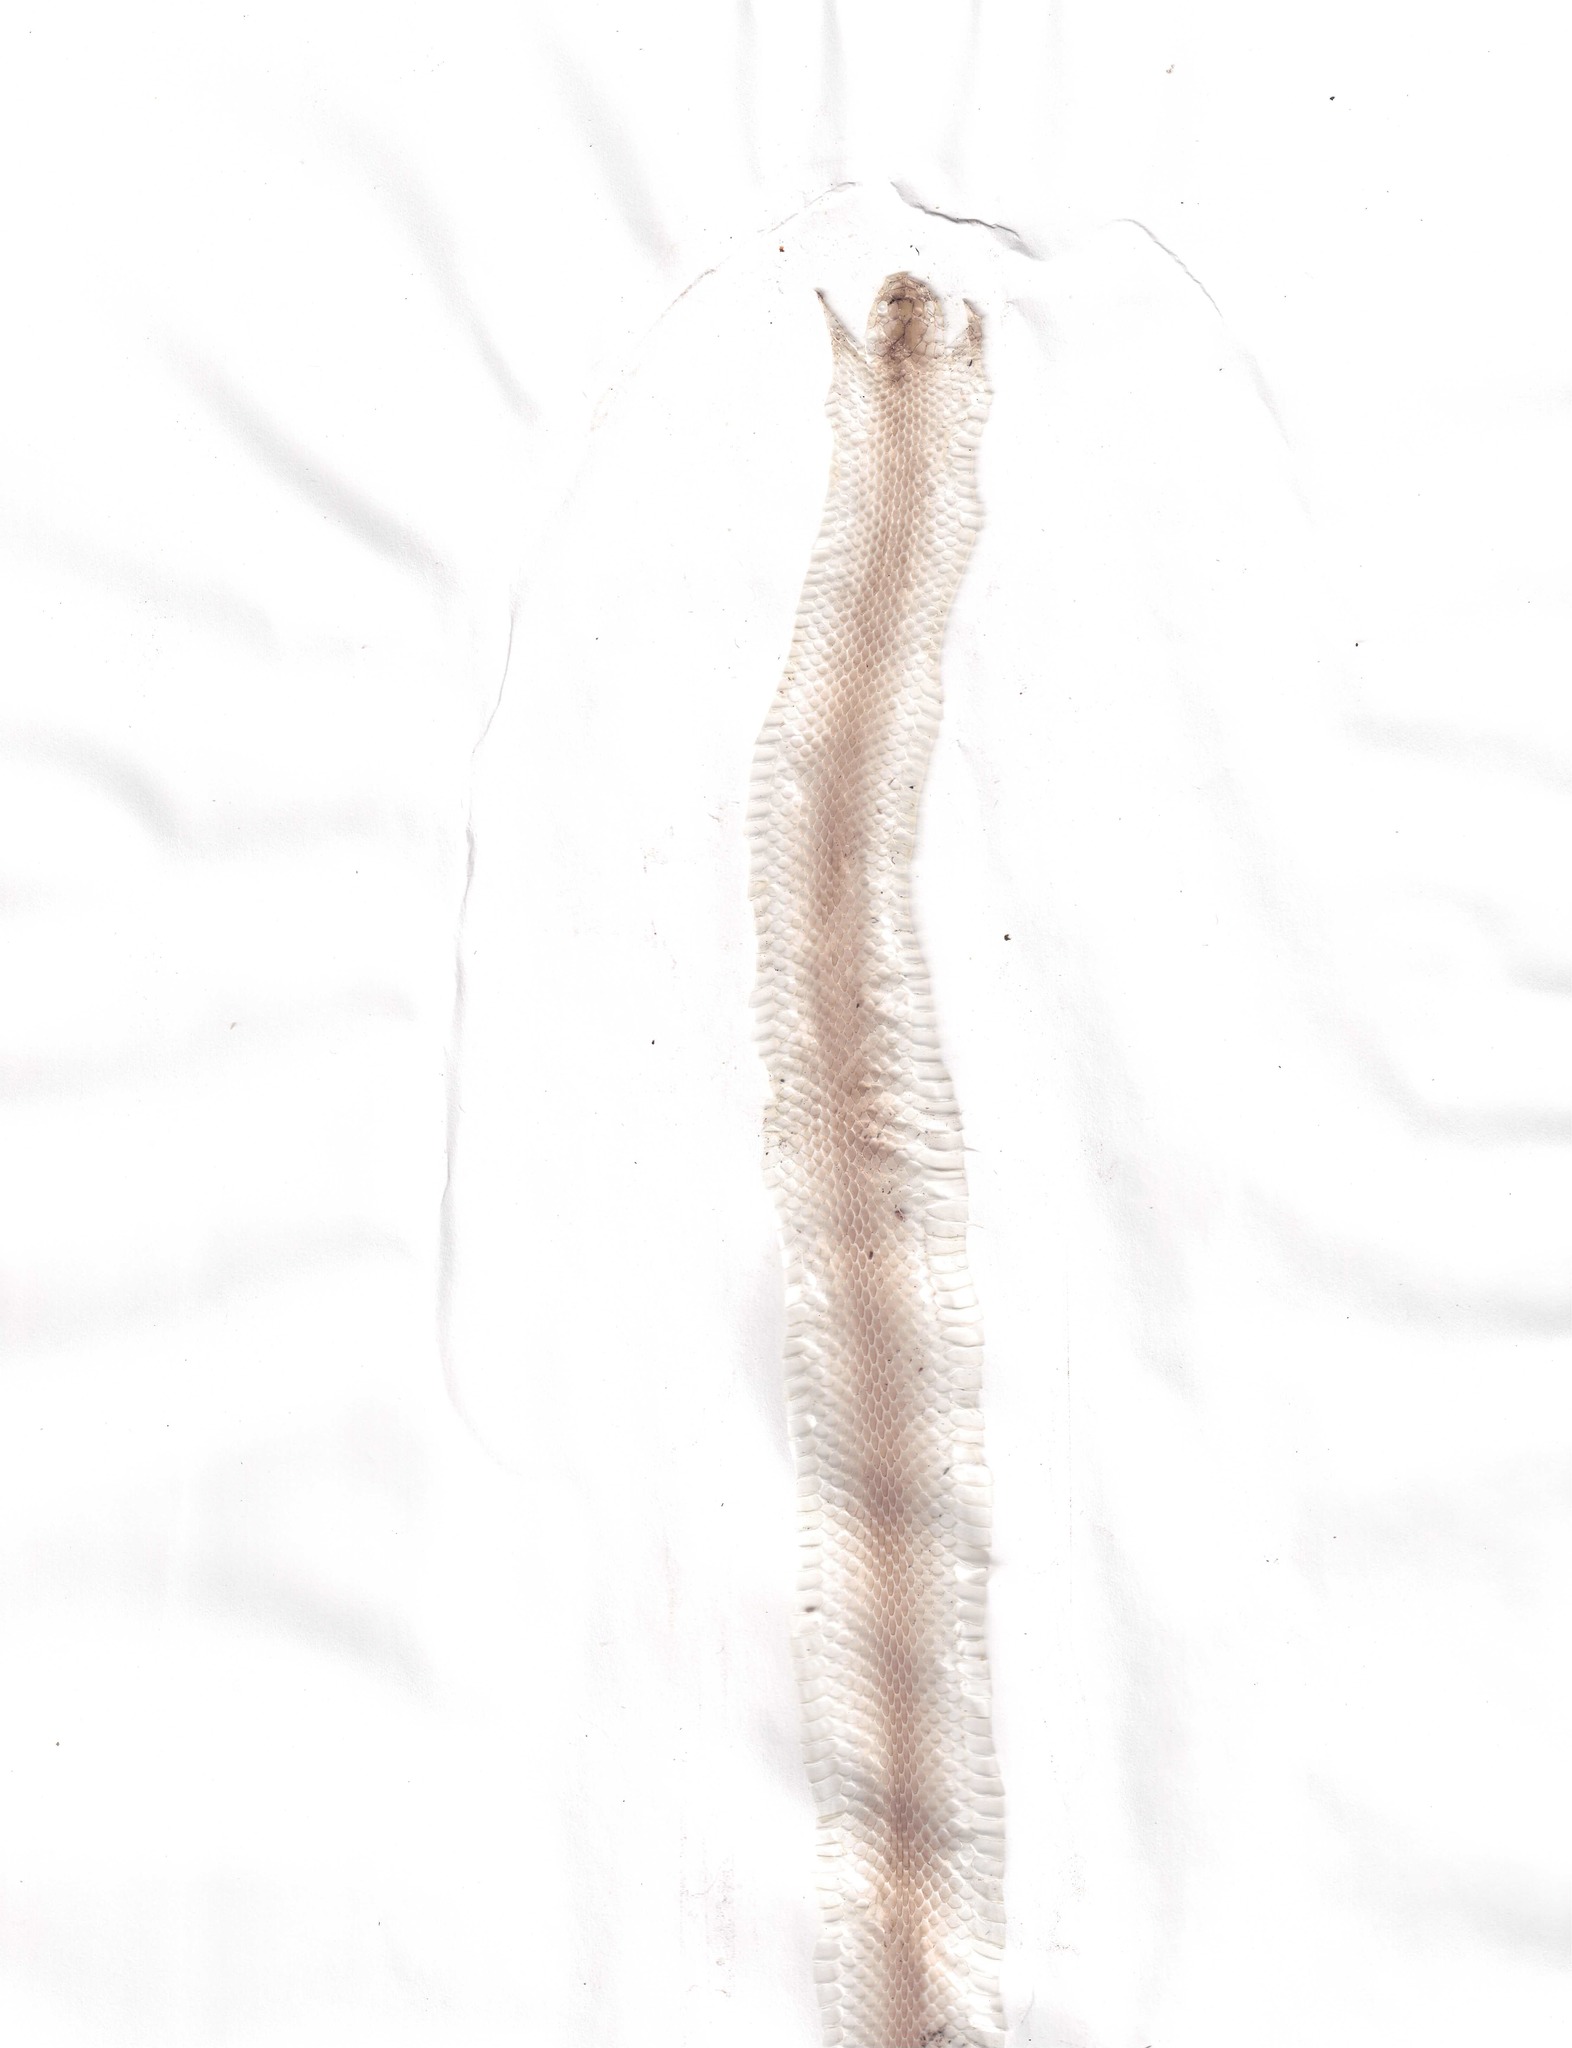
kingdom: Animalia
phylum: Chordata
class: Squamata
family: Colubridae
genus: Opheodrys
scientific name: Opheodrys vernalis
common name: Smooth green snake
